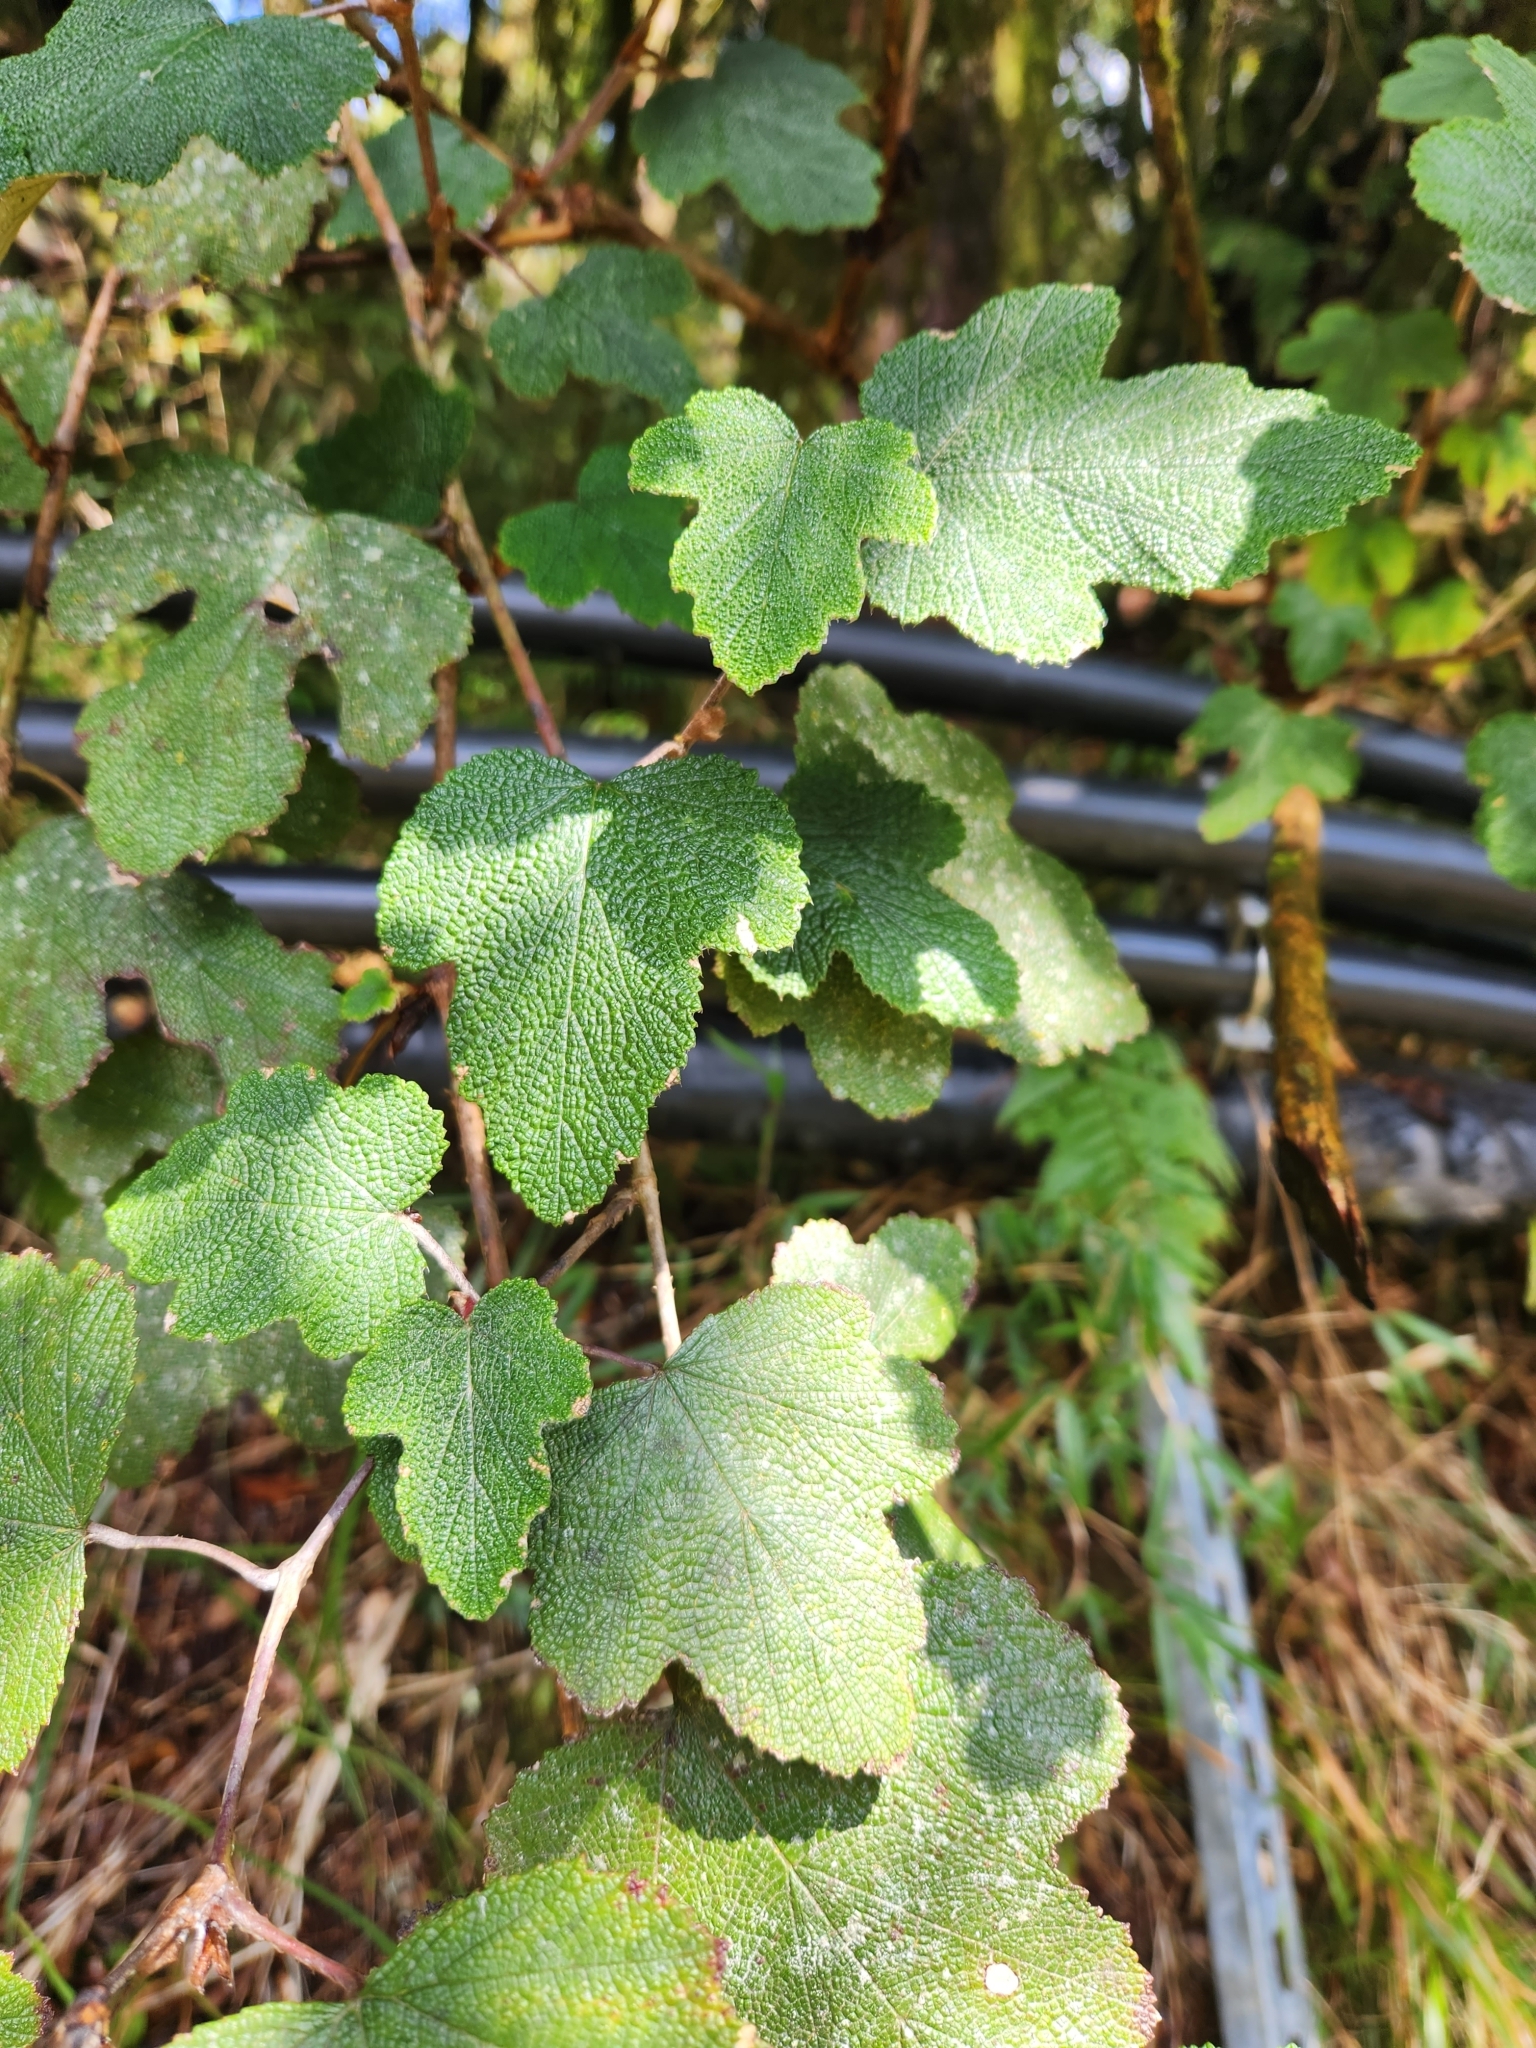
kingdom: Plantae
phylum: Tracheophyta
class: Magnoliopsida
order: Rosales
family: Rosaceae
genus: Rubus
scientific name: Rubus formosensis
